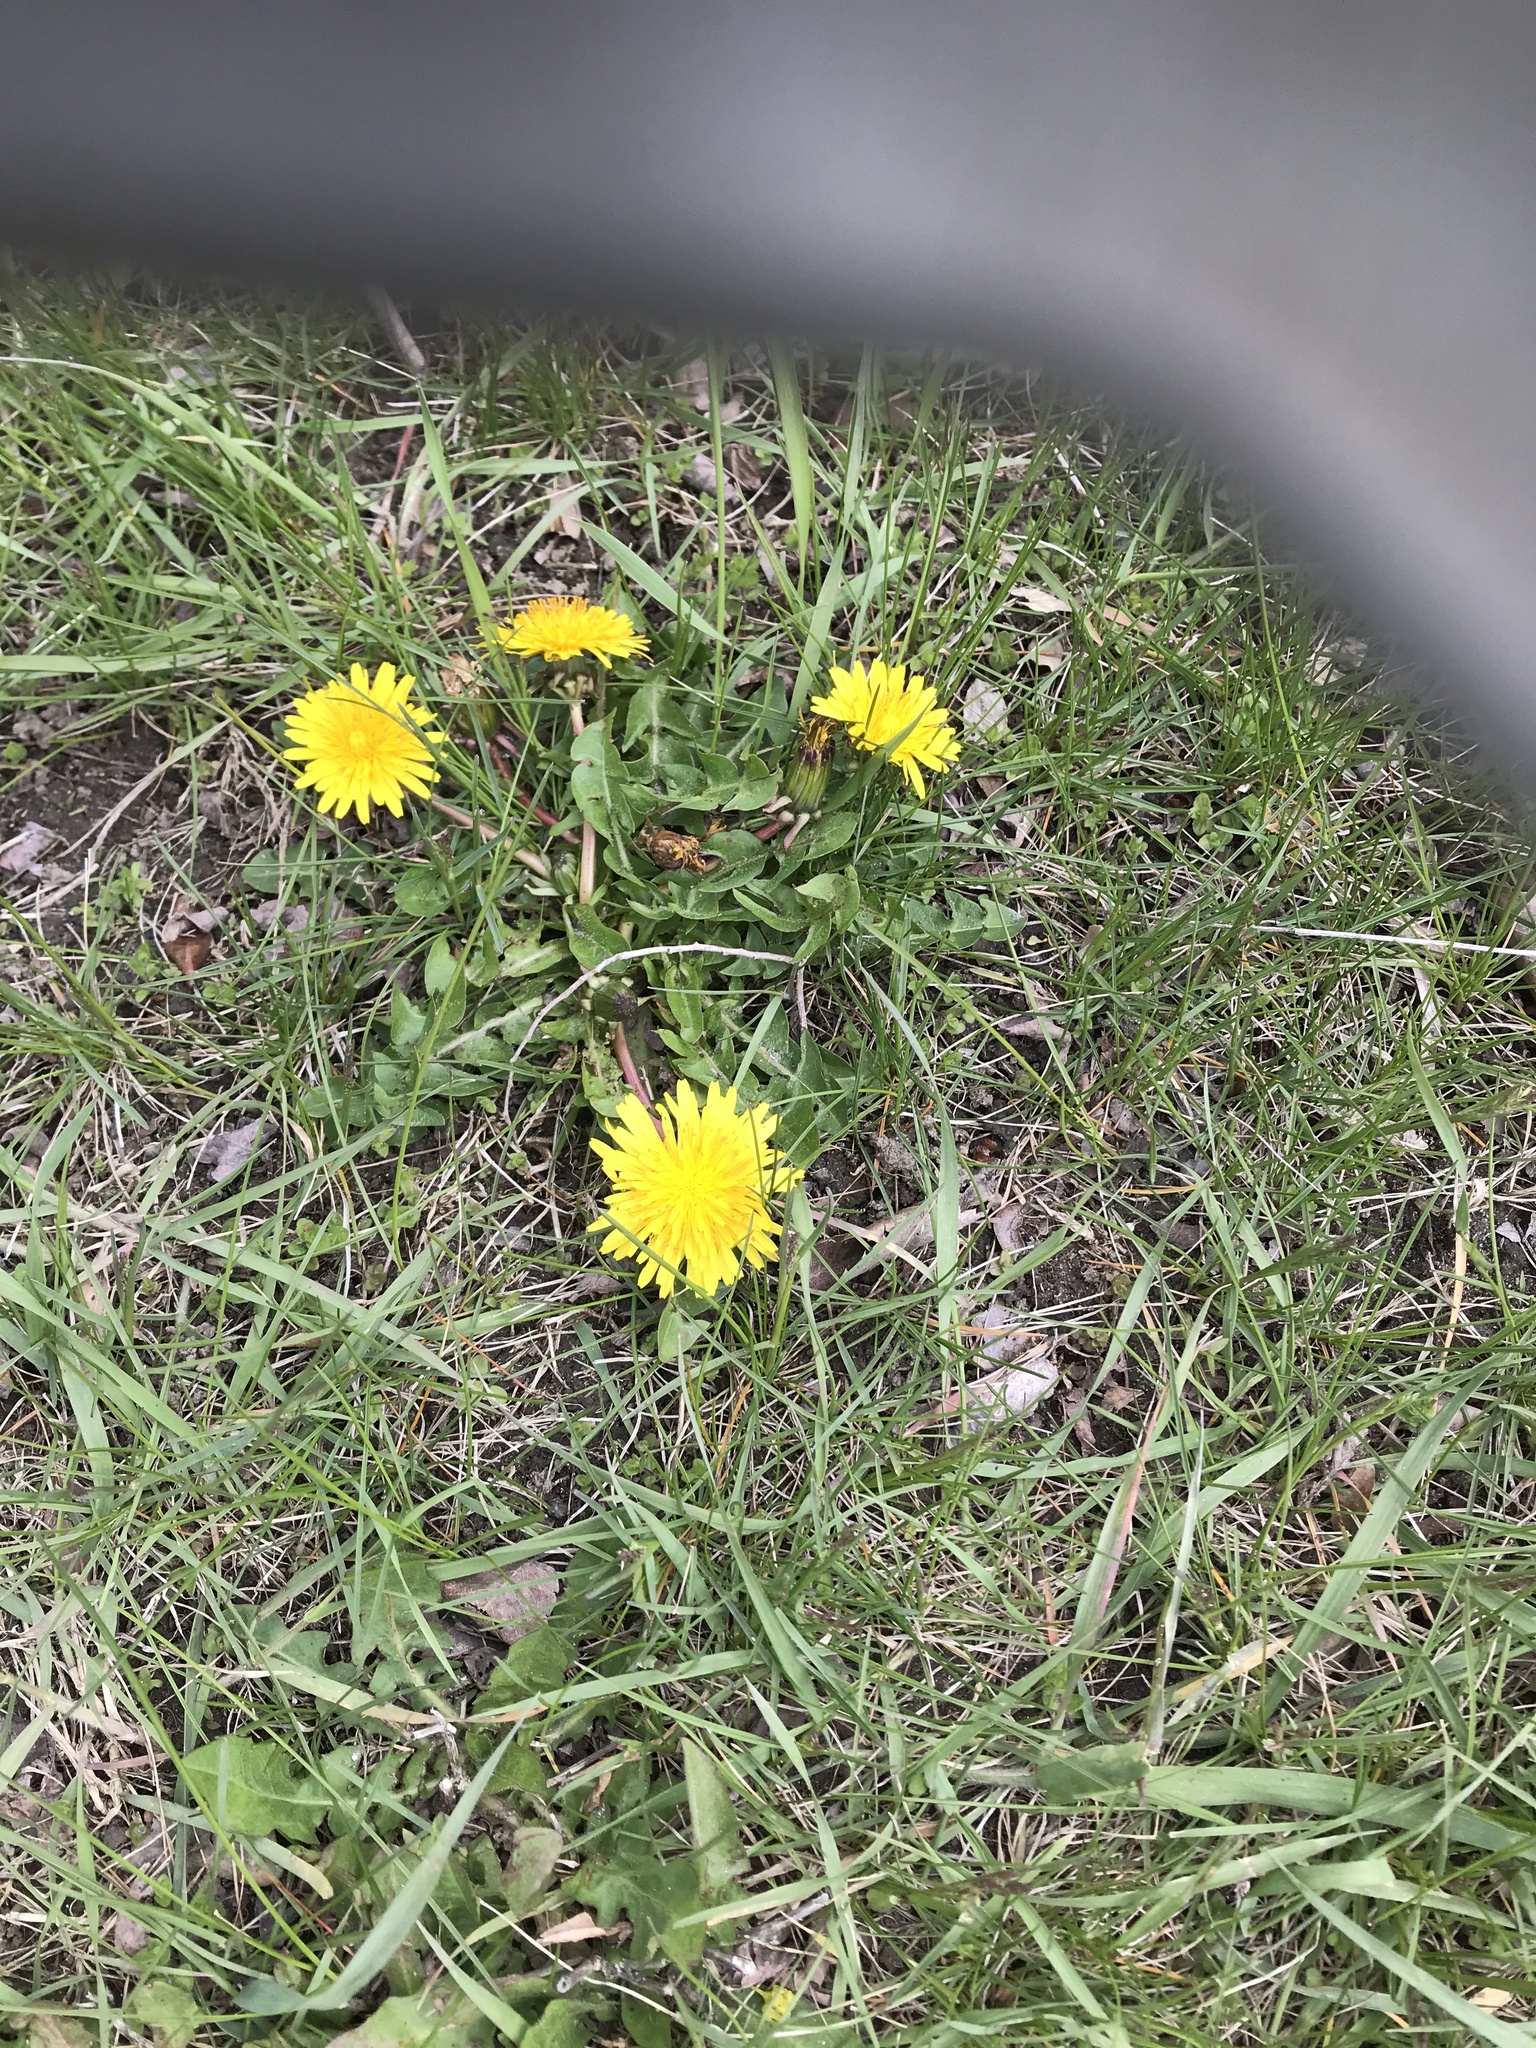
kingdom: Plantae
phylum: Tracheophyta
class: Magnoliopsida
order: Asterales
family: Asteraceae
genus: Taraxacum
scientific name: Taraxacum officinale
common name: Common dandelion
